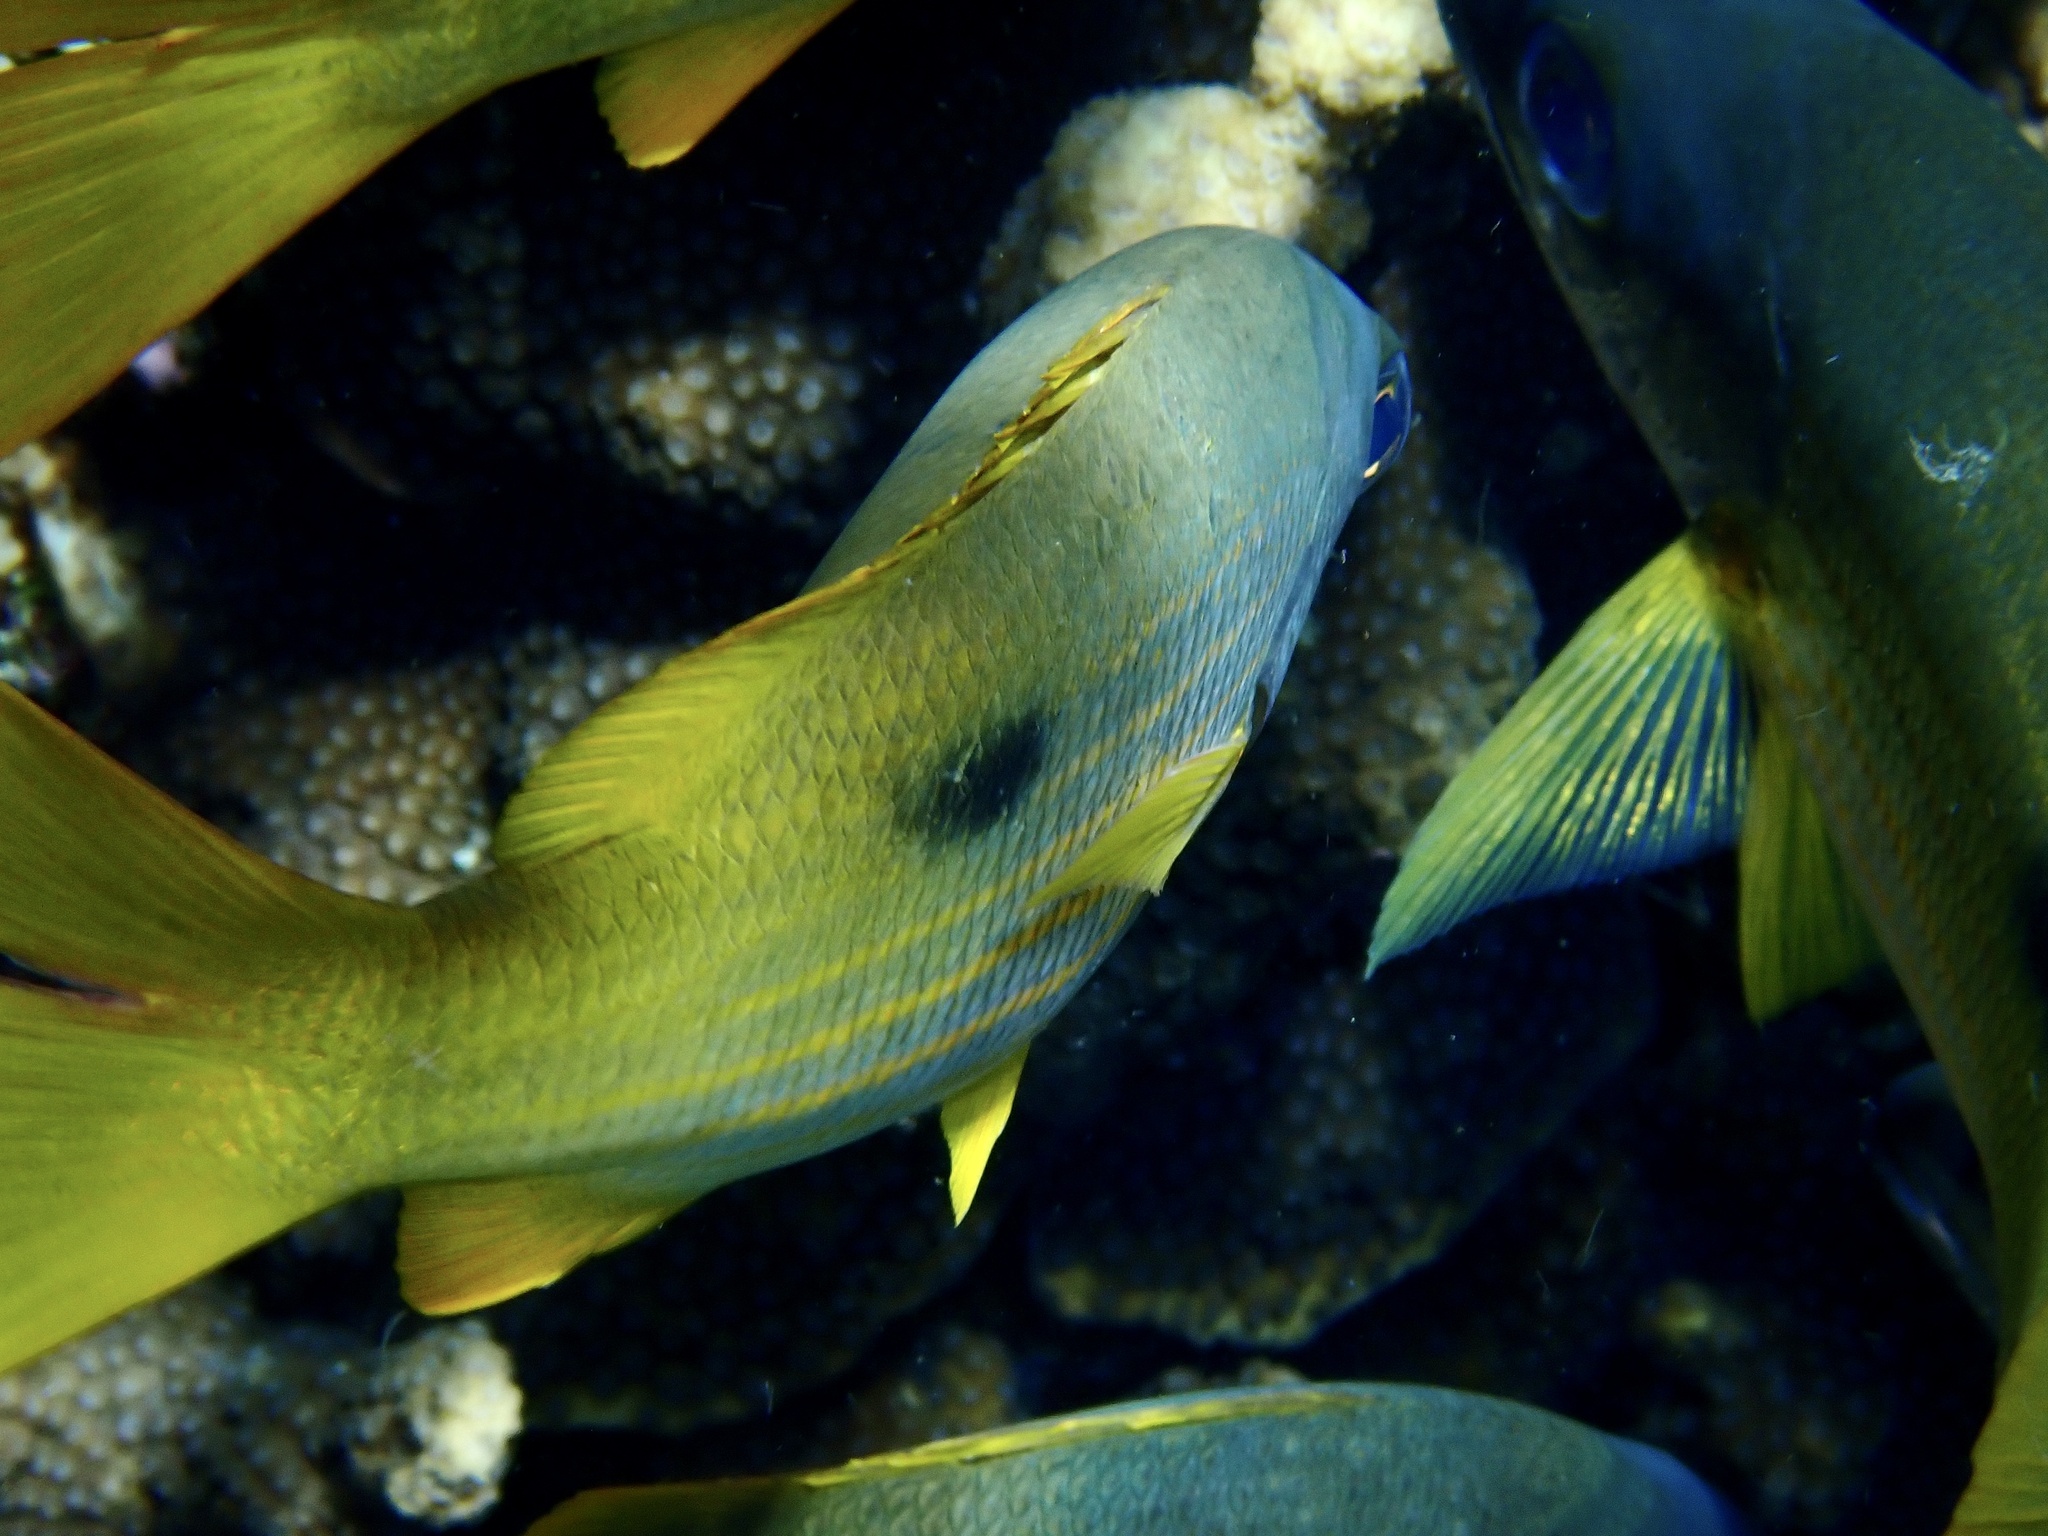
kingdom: Animalia
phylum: Chordata
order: Perciformes
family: Lutjanidae
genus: Lutjanus
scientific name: Lutjanus ehrenbergii
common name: Blackspot snapper
